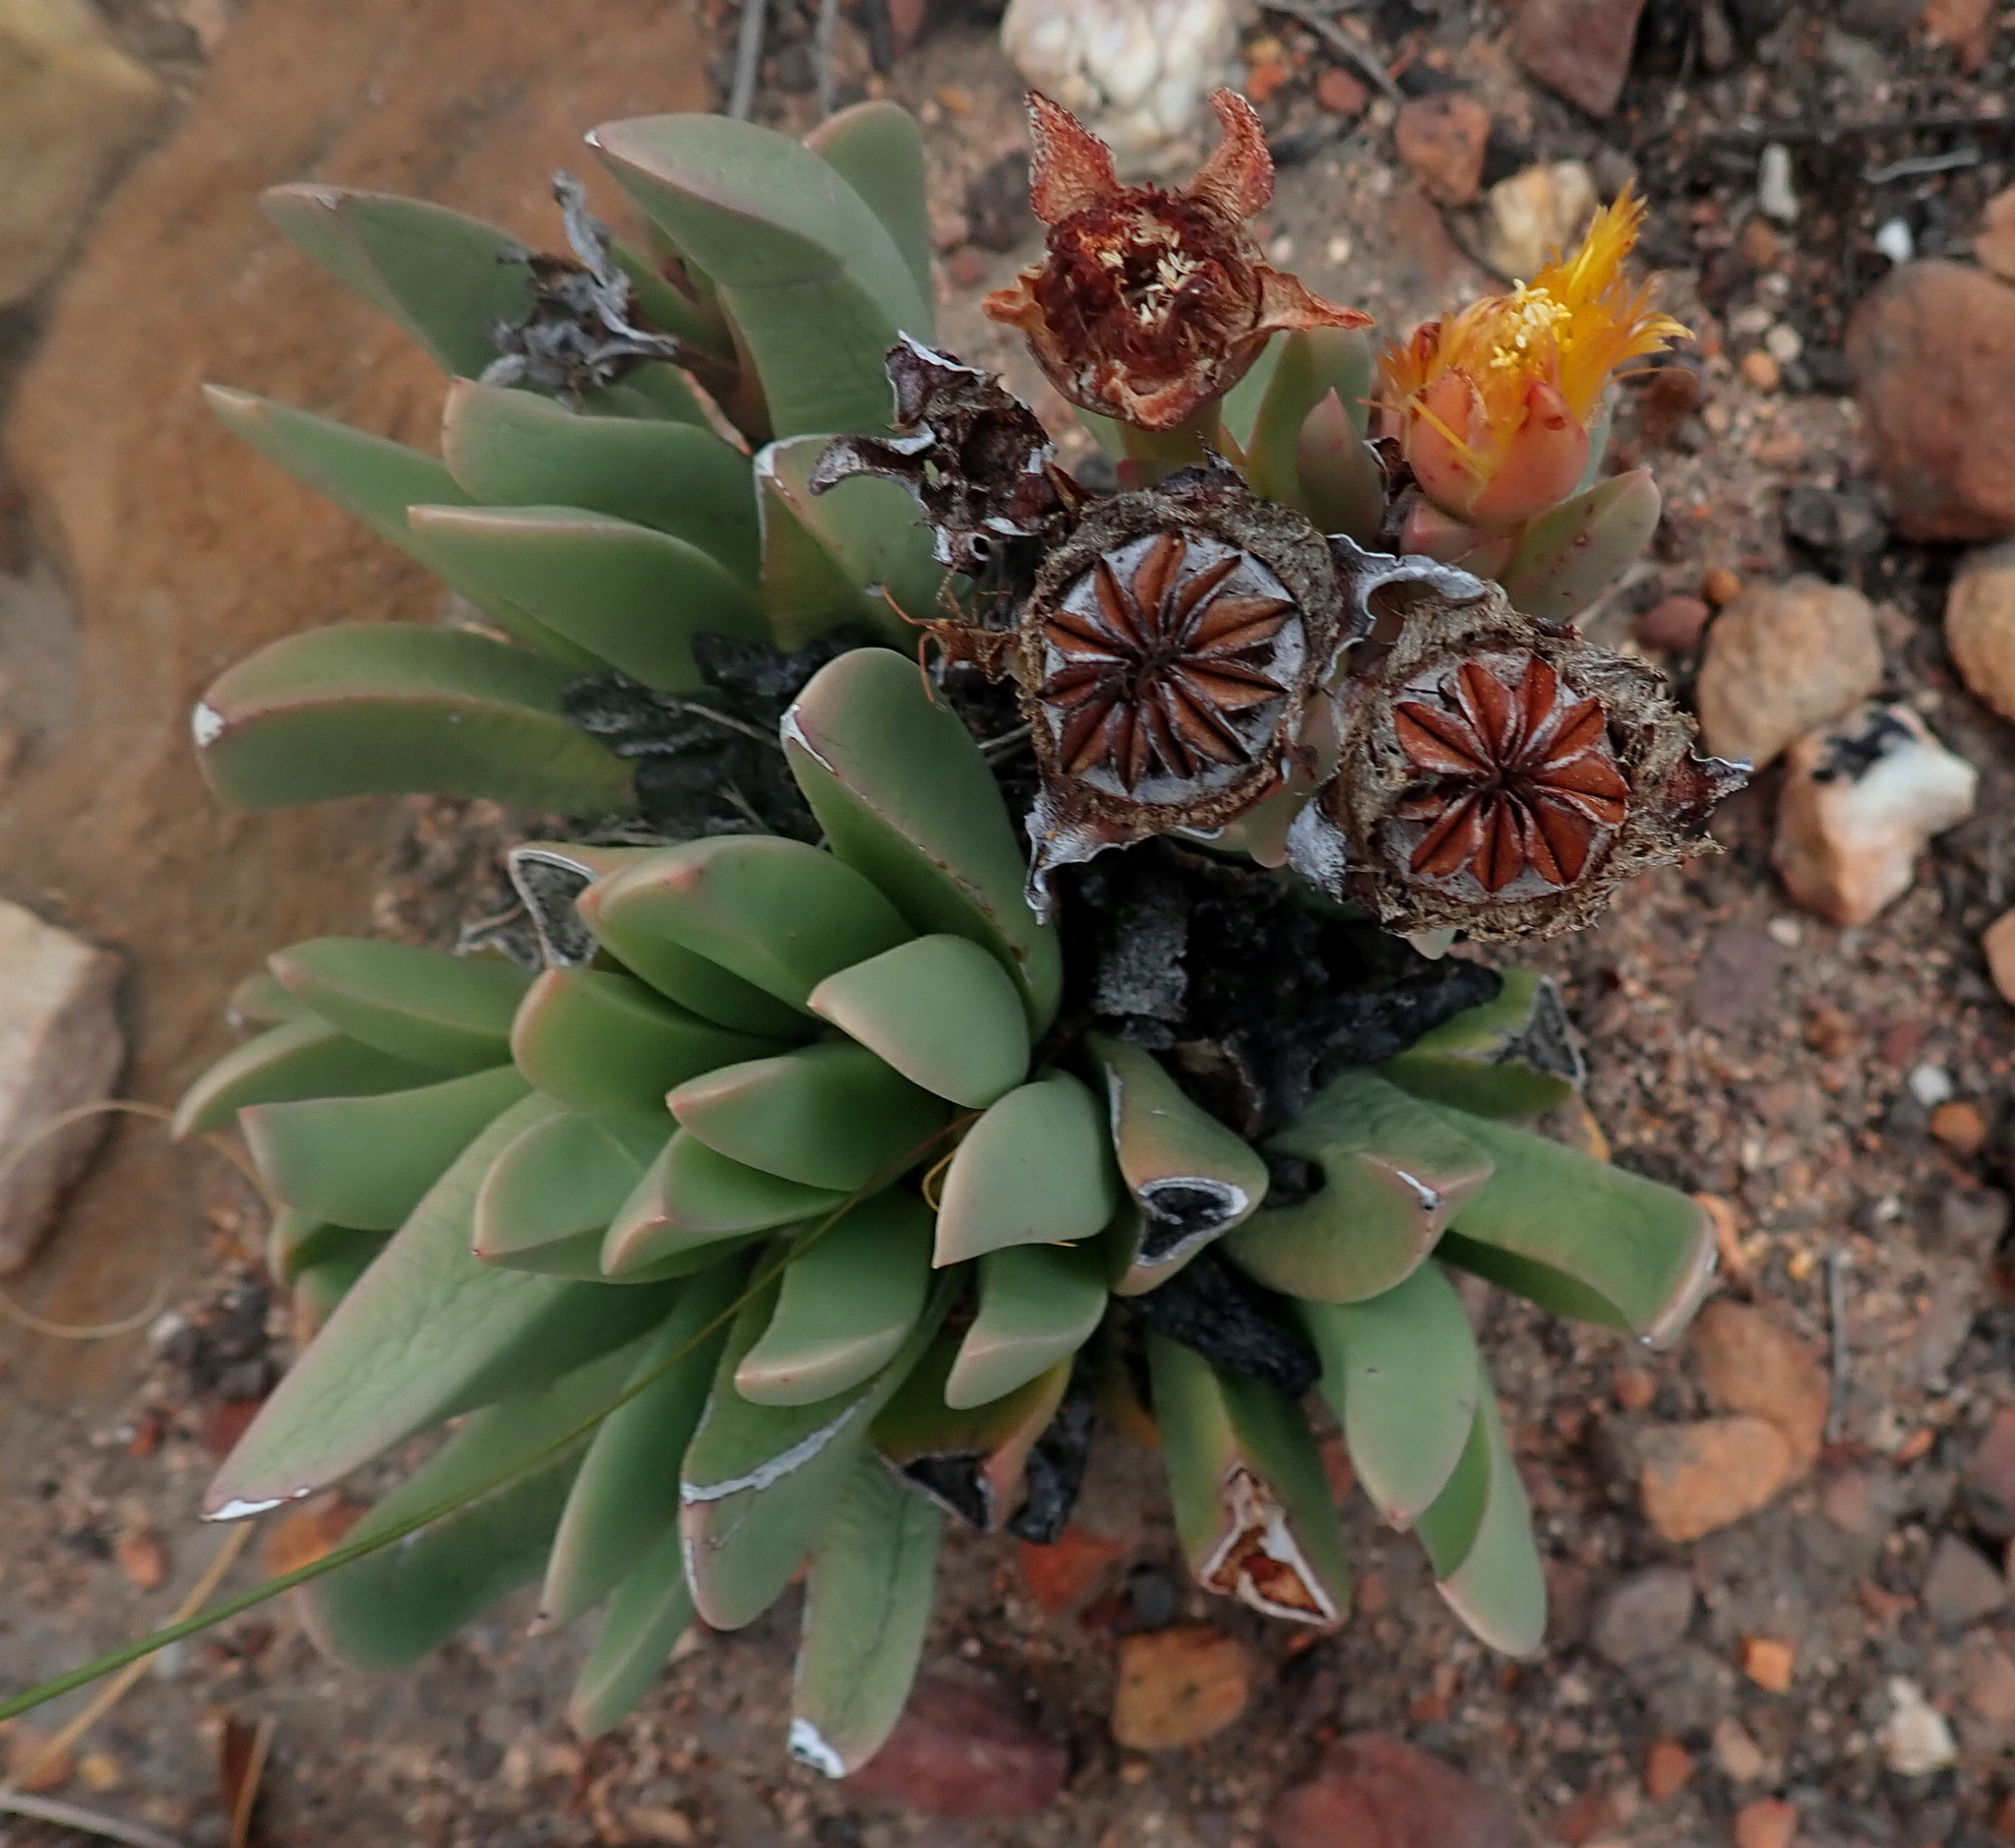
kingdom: Plantae
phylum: Tracheophyta
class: Magnoliopsida
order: Caryophyllales
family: Aizoaceae
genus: Machairophyllum
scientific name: Machairophyllum albidum
